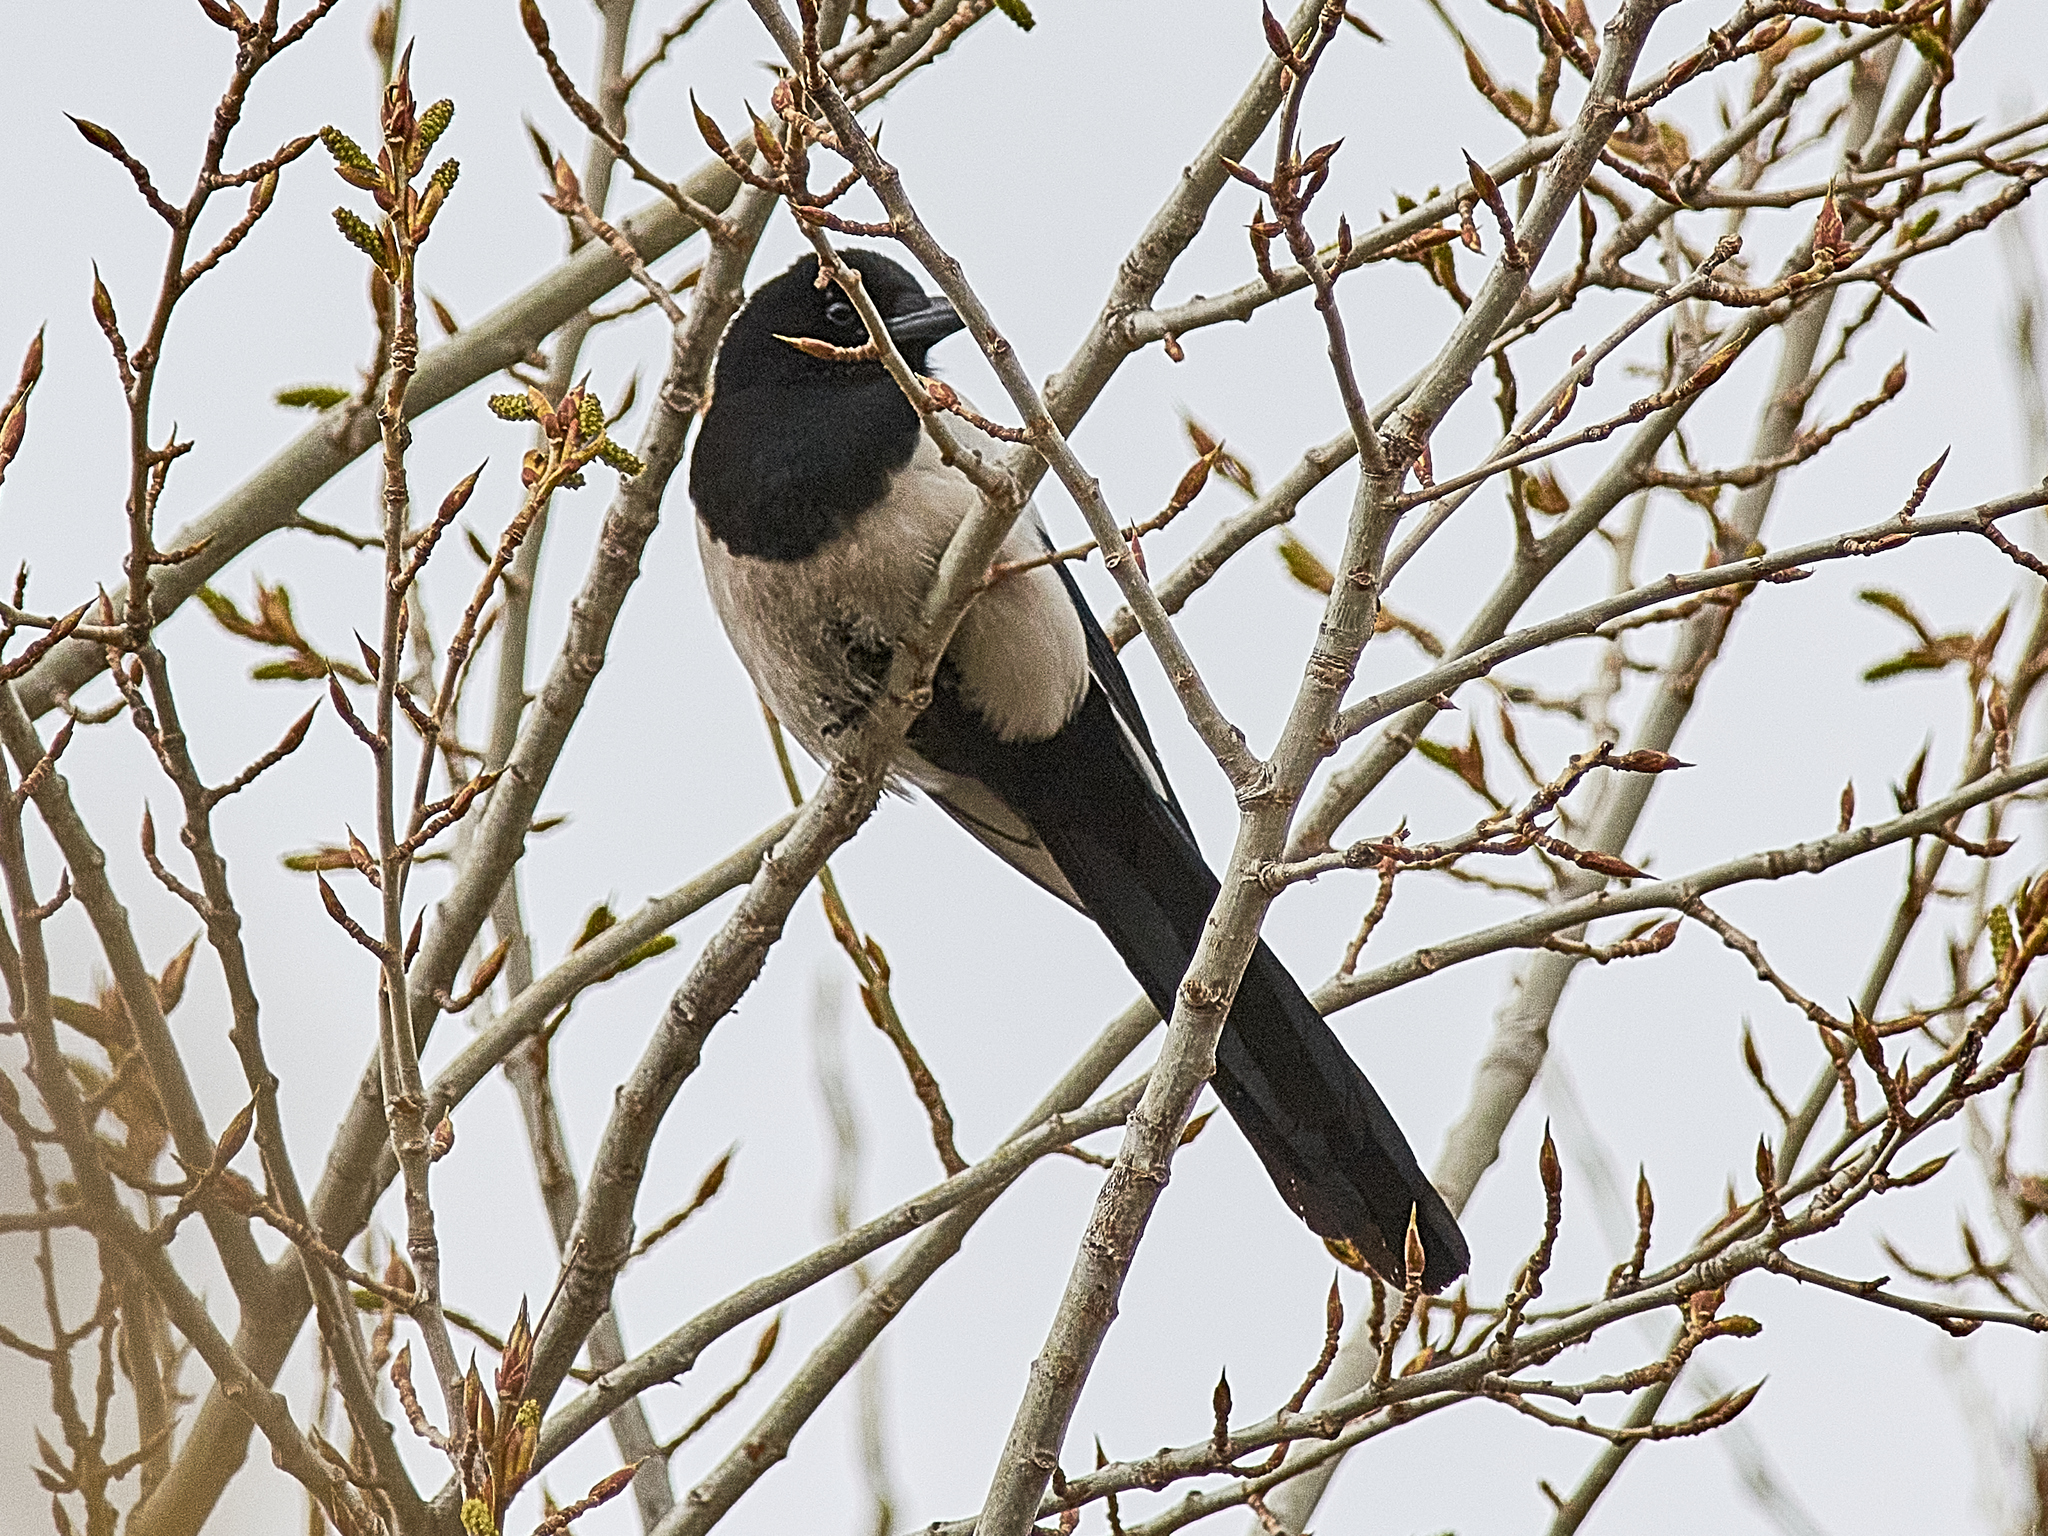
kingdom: Animalia
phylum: Chordata
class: Aves
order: Passeriformes
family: Corvidae
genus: Pica
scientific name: Pica pica
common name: Eurasian magpie
